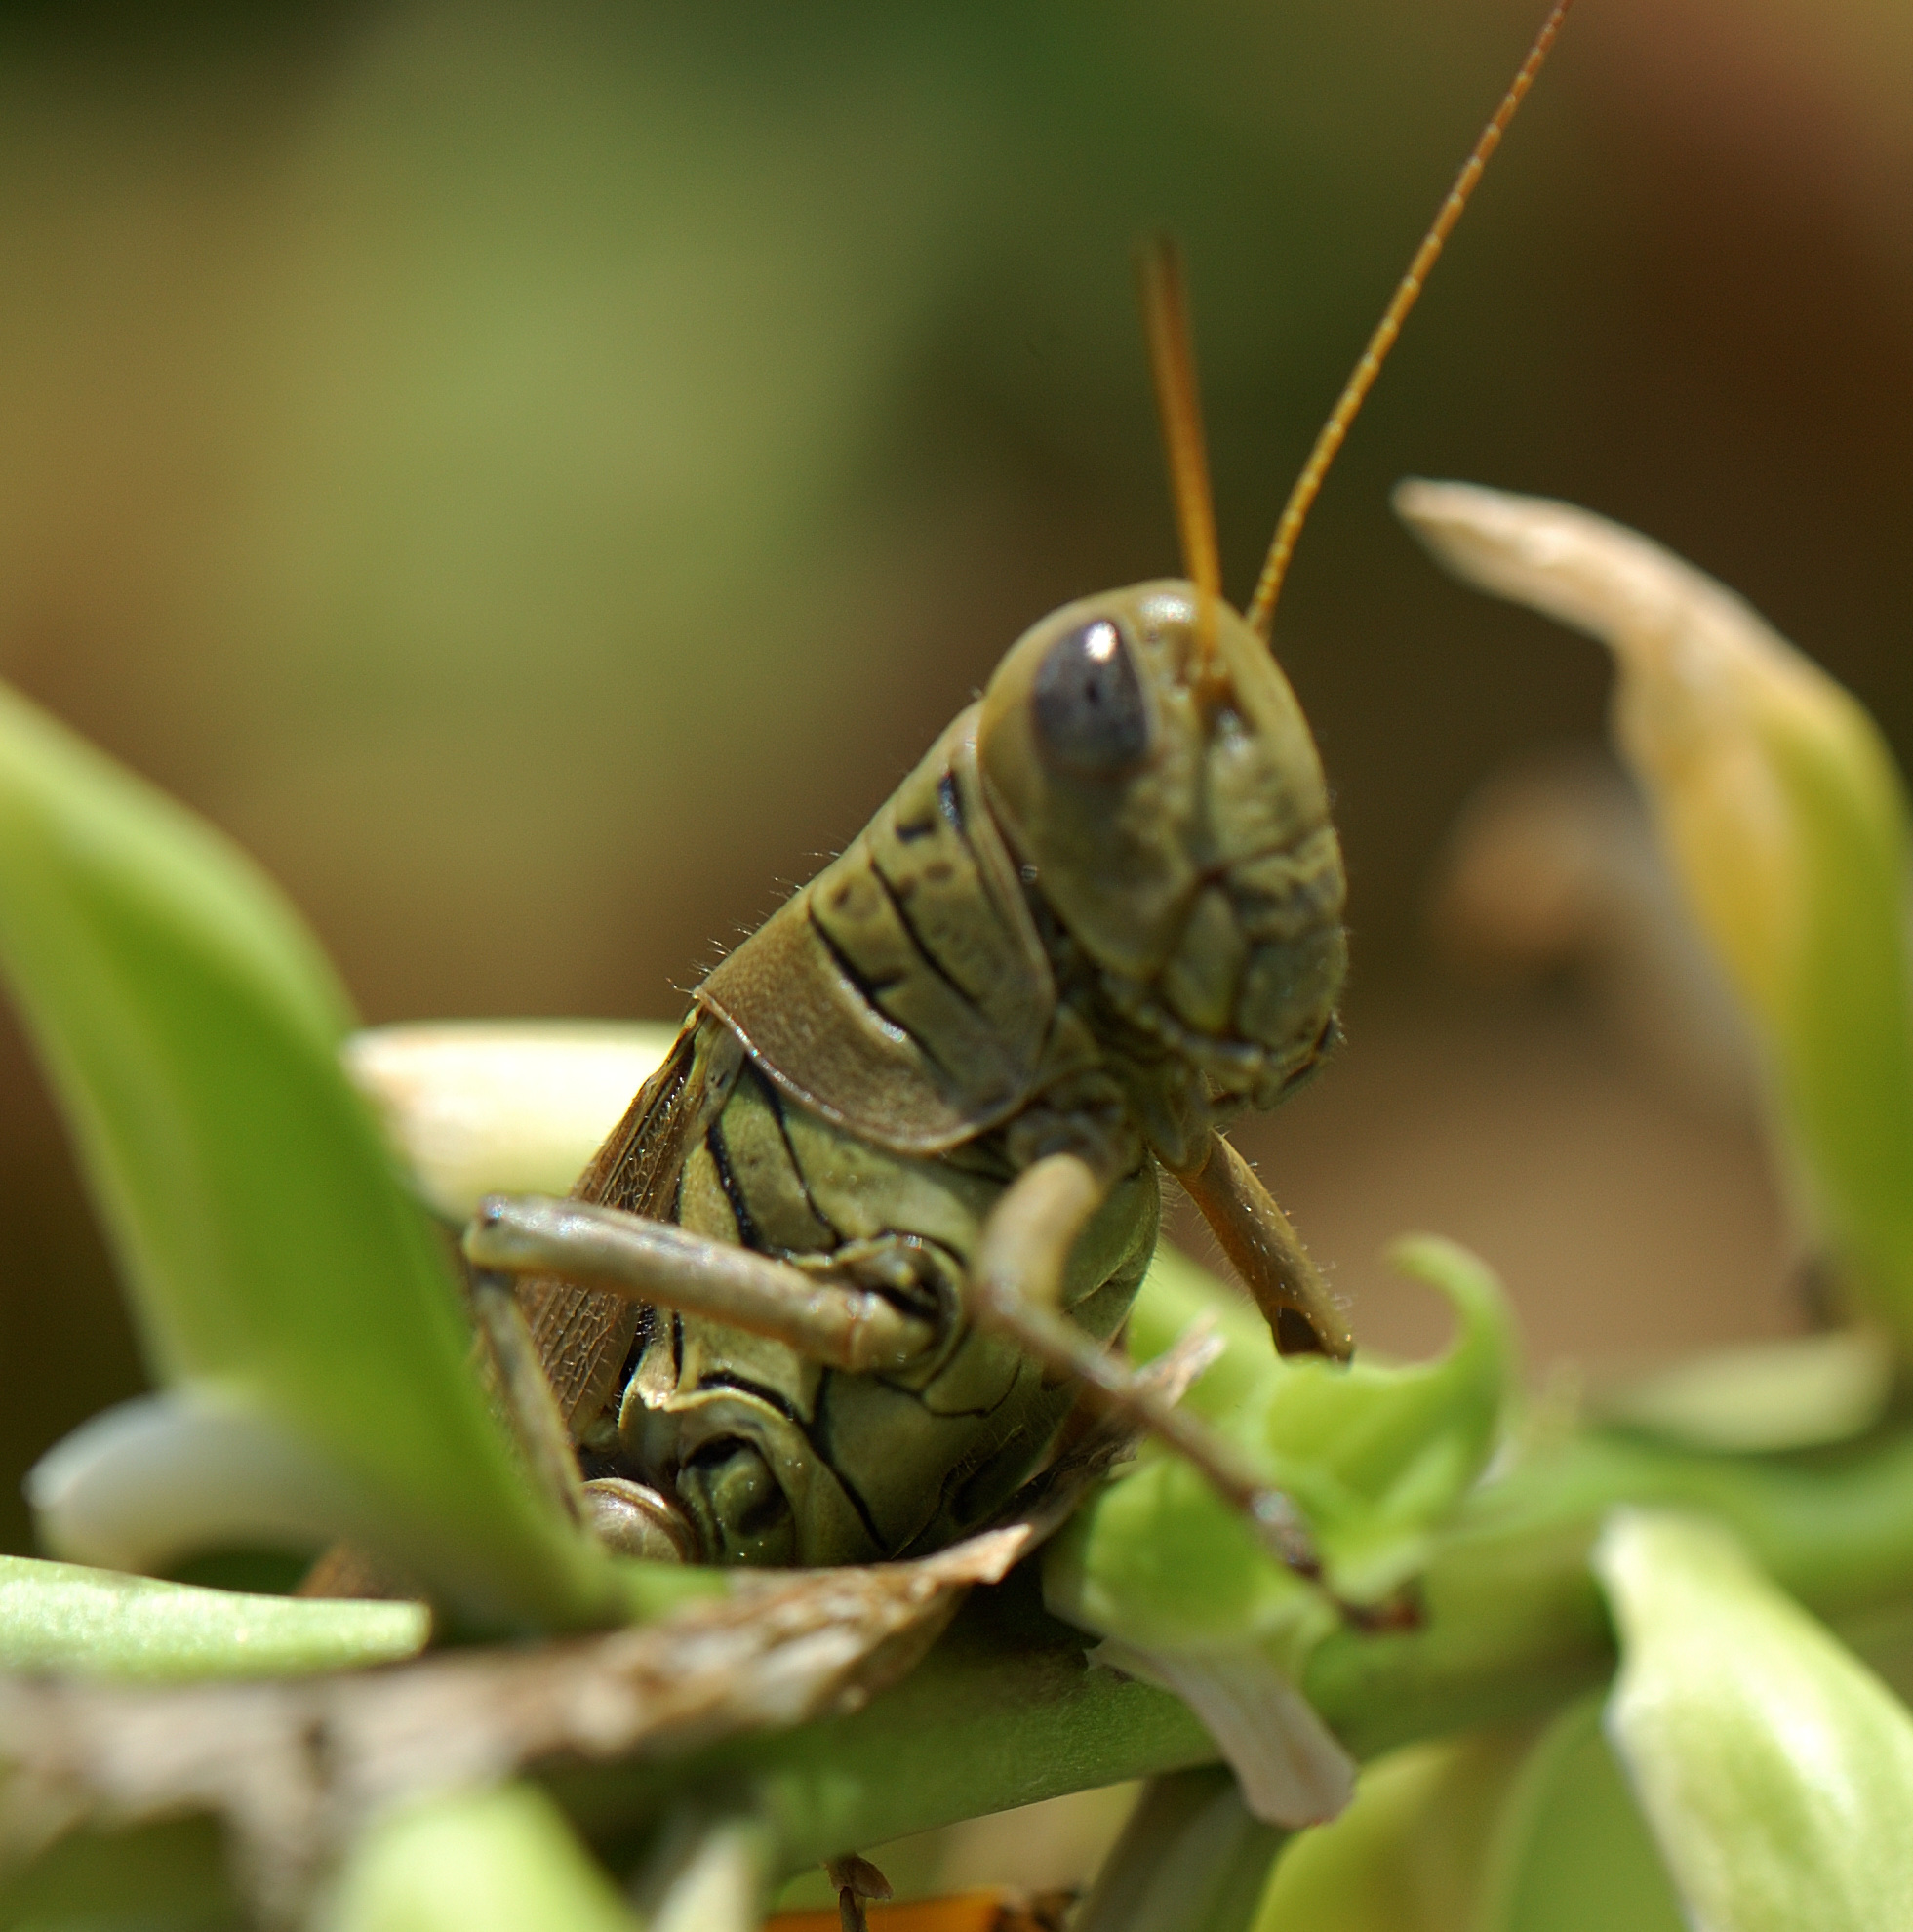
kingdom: Animalia
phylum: Arthropoda
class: Insecta
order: Orthoptera
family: Acrididae
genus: Melanoplus
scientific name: Melanoplus differentialis
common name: Differential grasshopper
